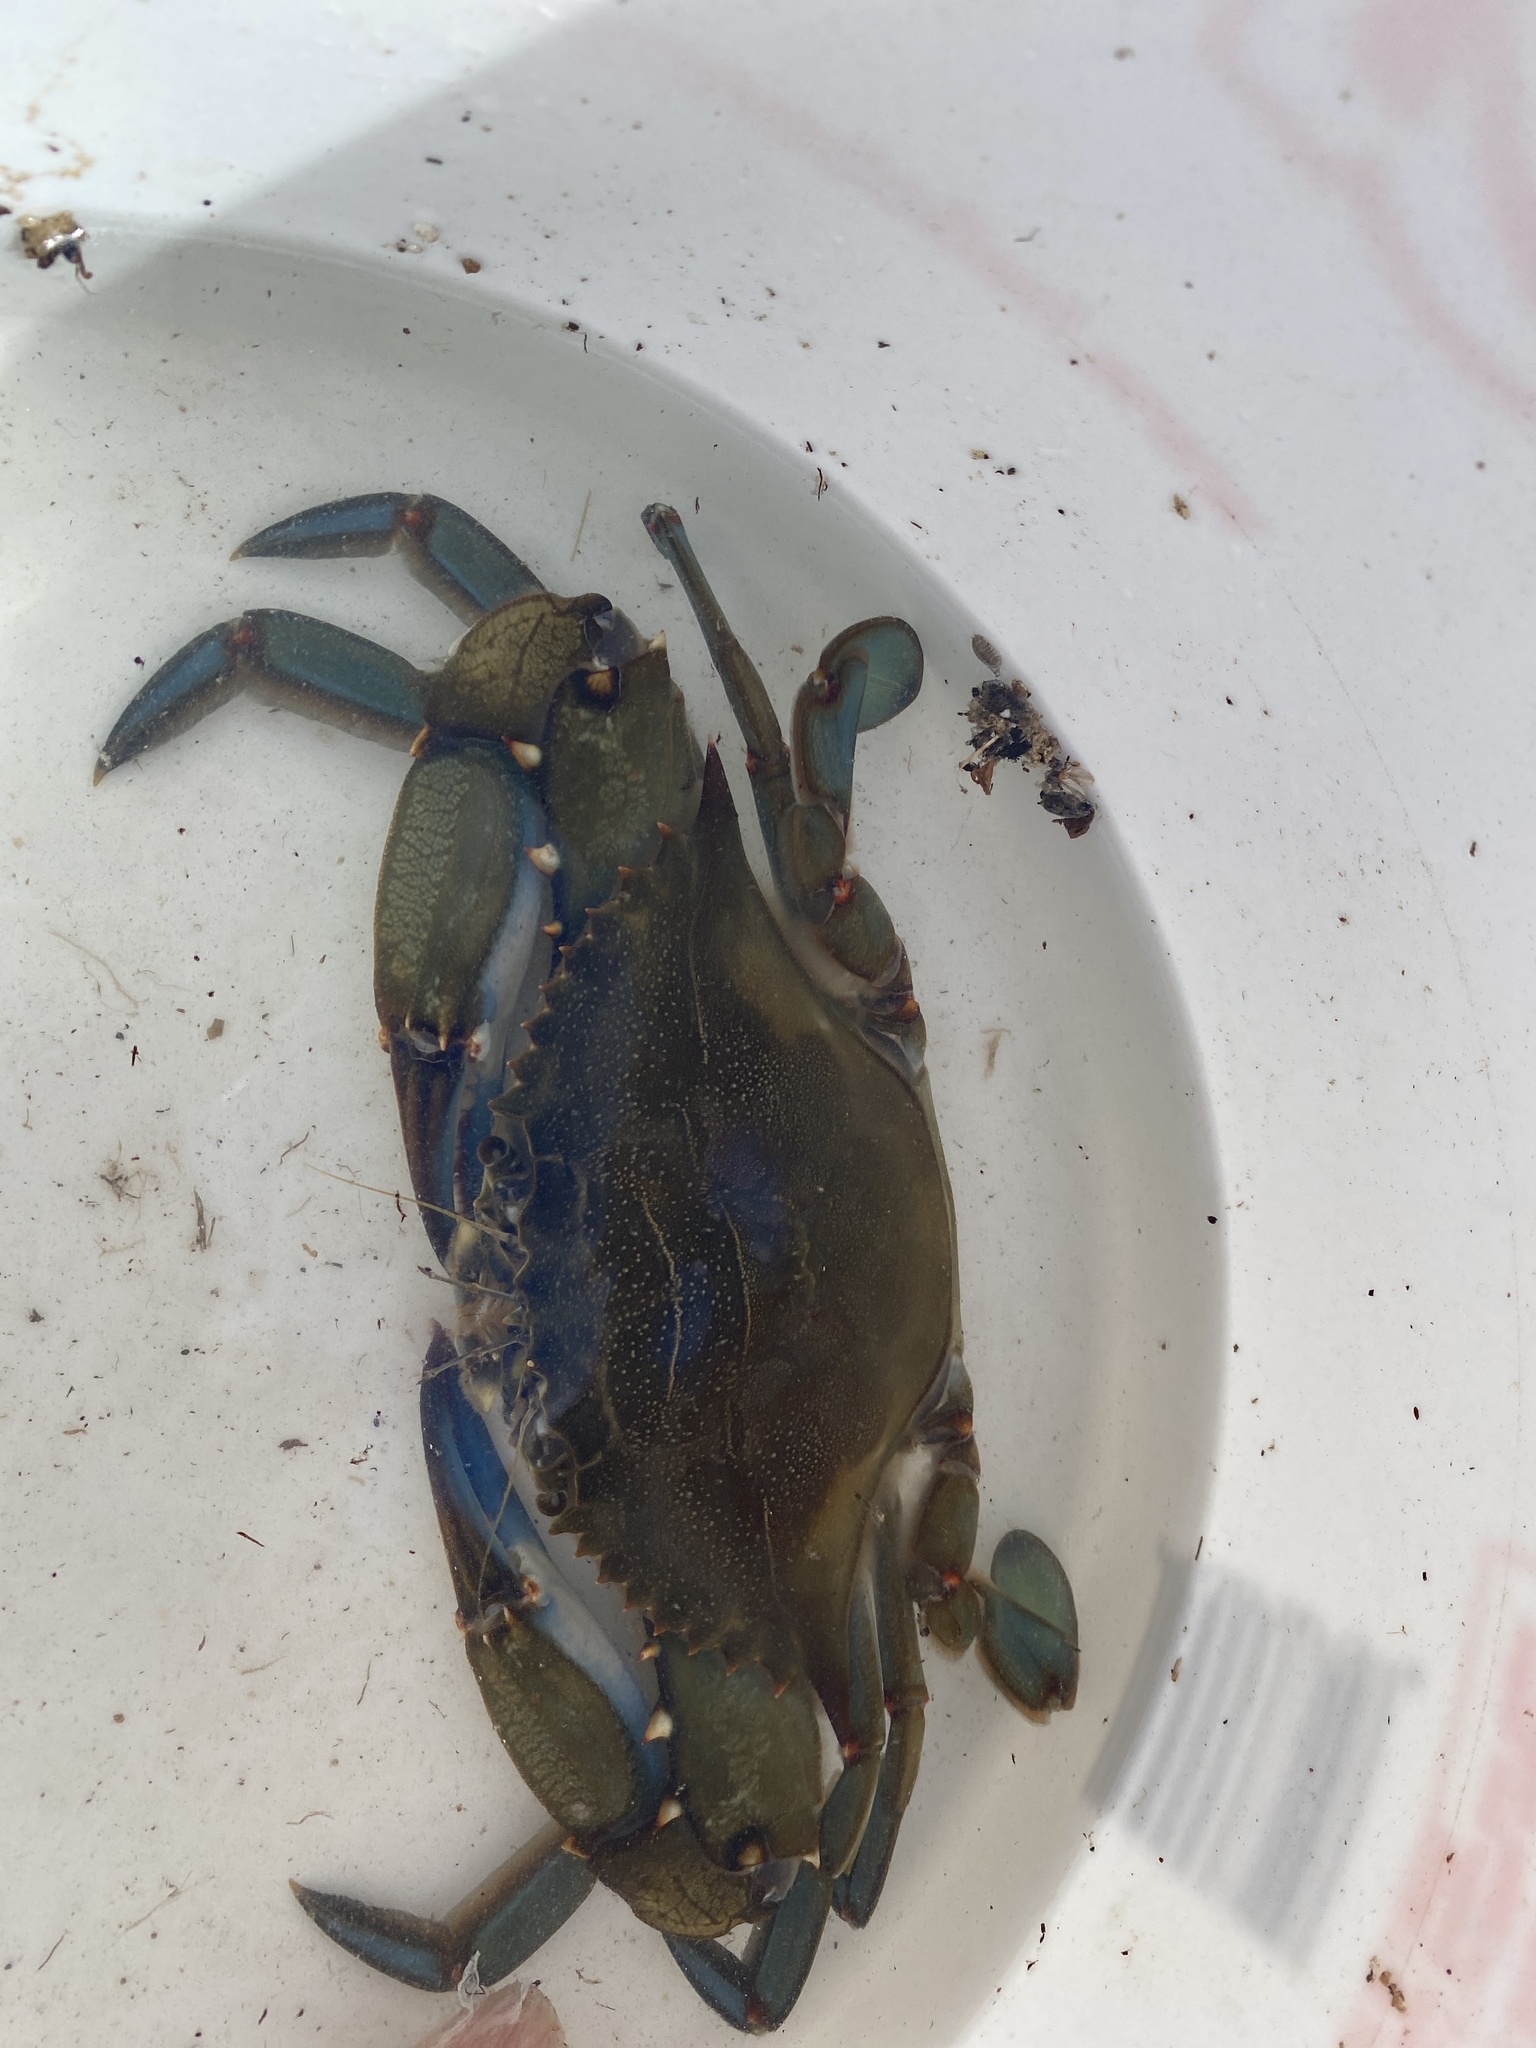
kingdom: Animalia
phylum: Arthropoda
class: Malacostraca
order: Decapoda
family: Portunidae
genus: Callinectes
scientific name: Callinectes sapidus
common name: Blue crab
